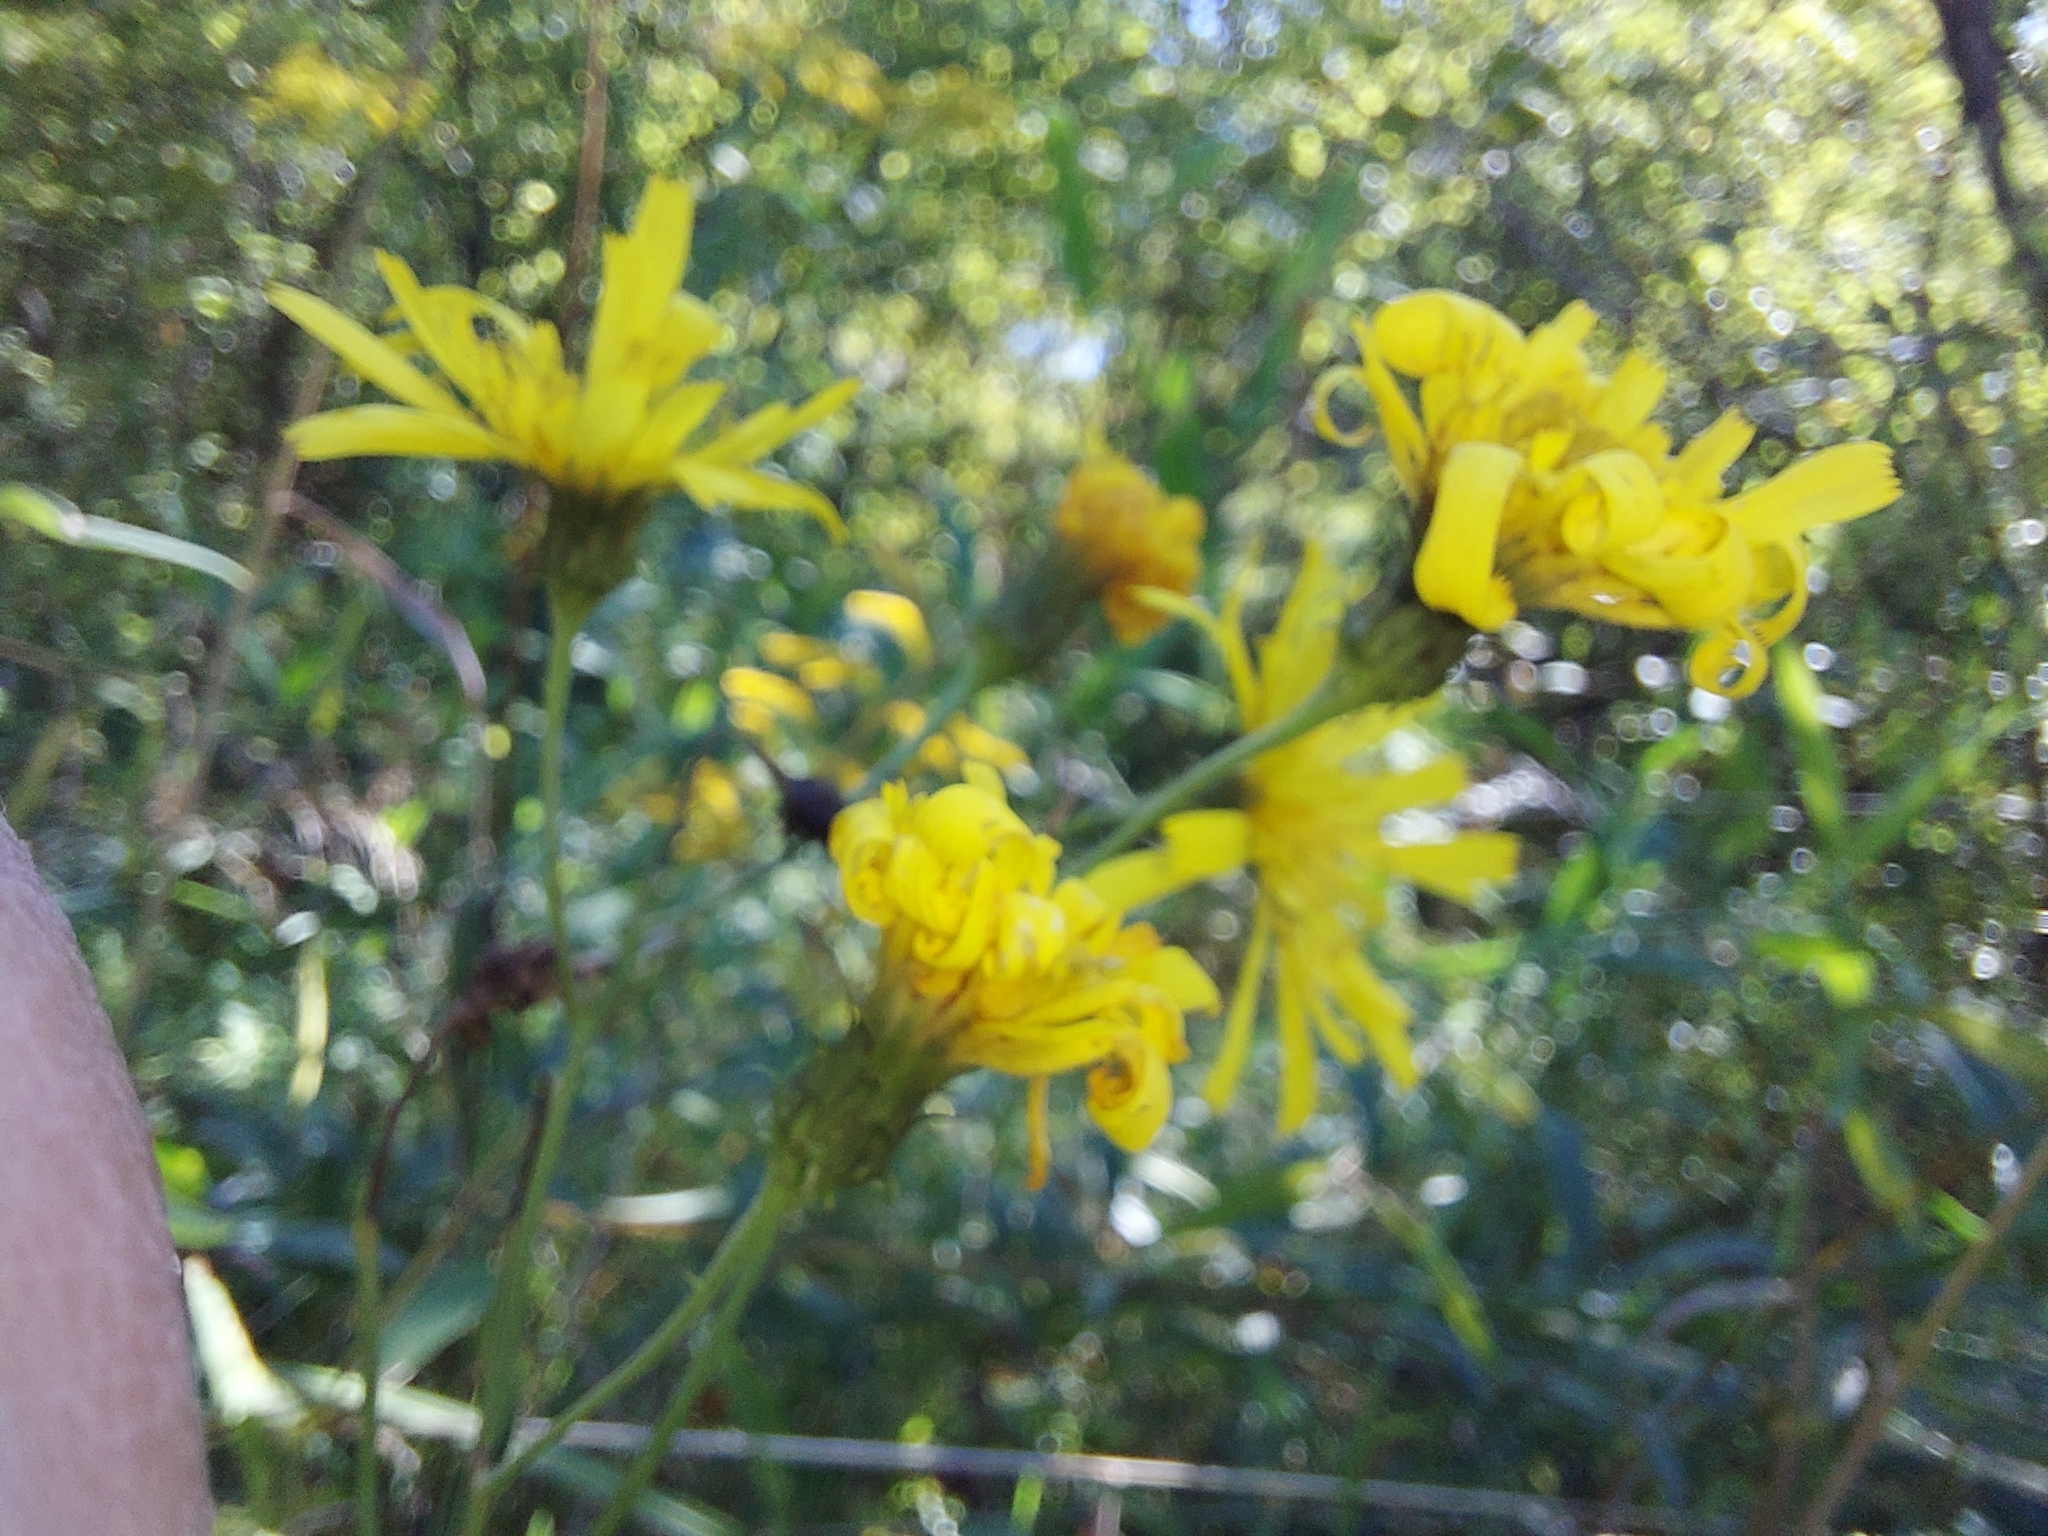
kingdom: Plantae
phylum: Tracheophyta
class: Magnoliopsida
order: Asterales
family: Asteraceae
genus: Hieracium
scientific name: Hieracium umbellatum
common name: Northern hawkweed
